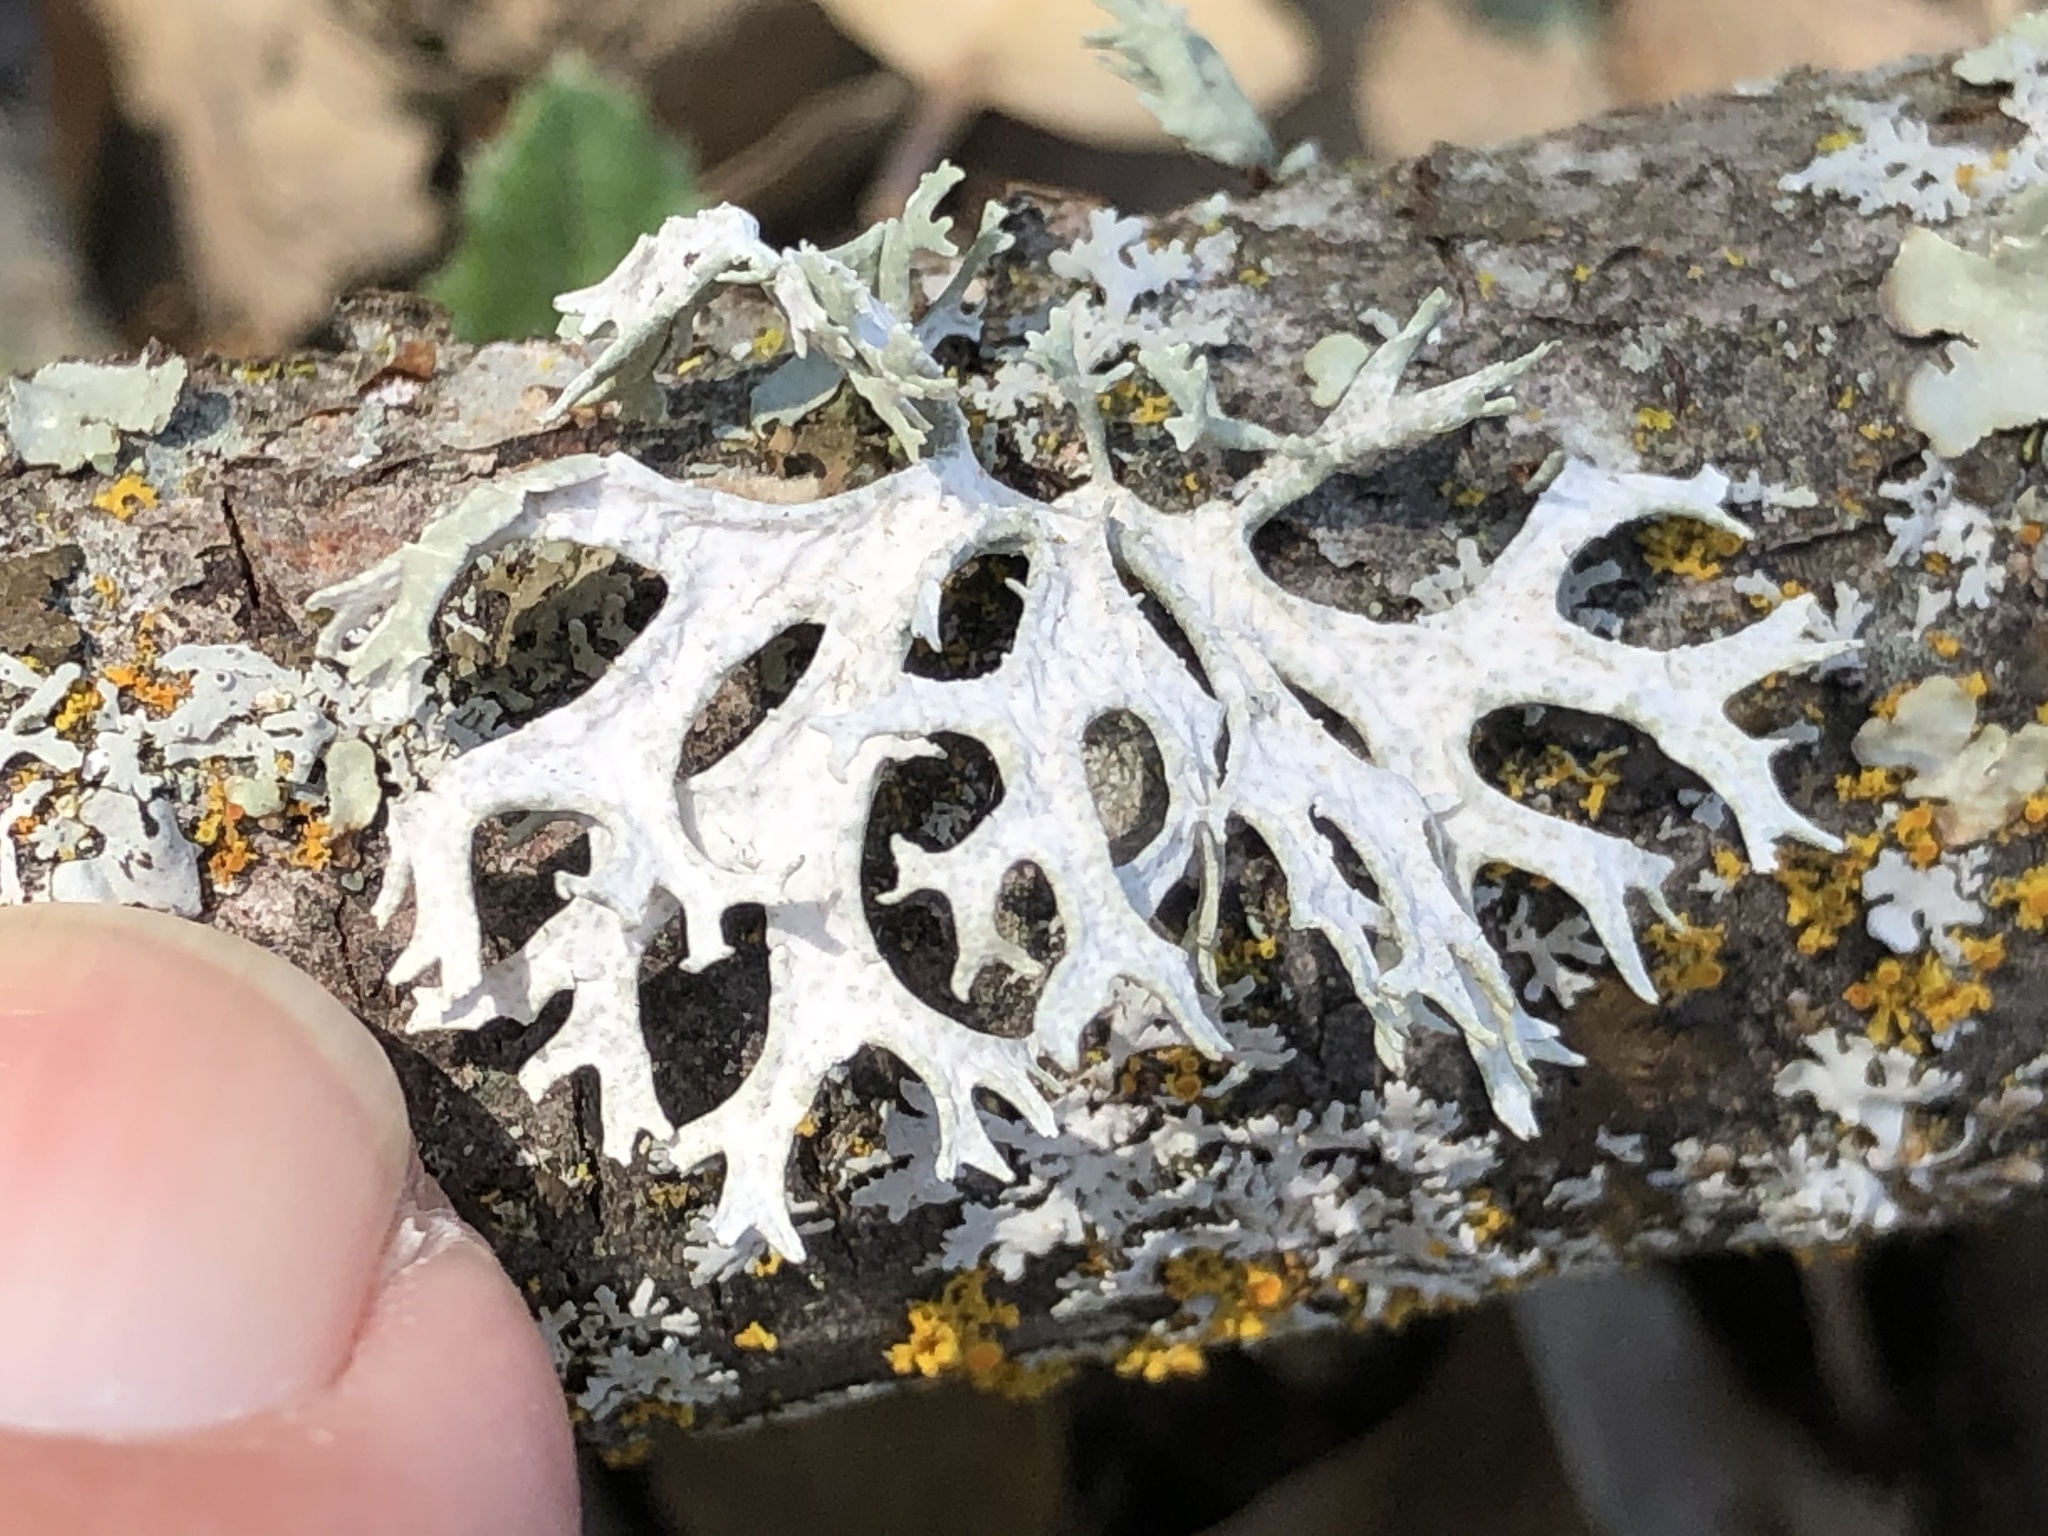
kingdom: Fungi
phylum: Ascomycota
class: Lecanoromycetes
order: Lecanorales
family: Parmeliaceae
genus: Evernia
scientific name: Evernia prunastri
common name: Oak moss
